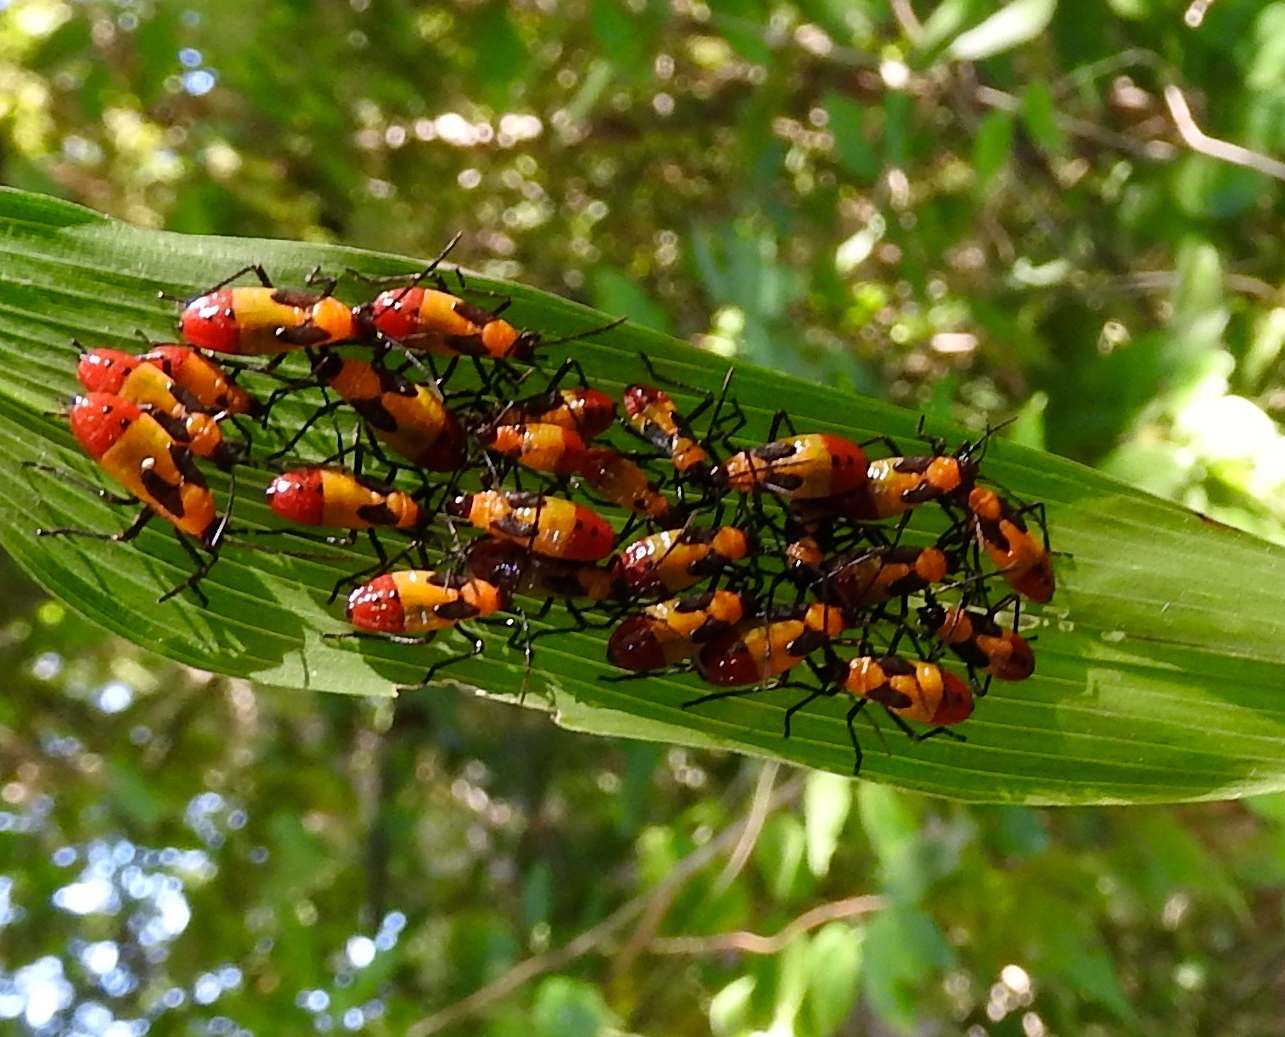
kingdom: Animalia
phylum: Arthropoda
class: Insecta
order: Hemiptera
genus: Erythrischius
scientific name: Erythrischius
